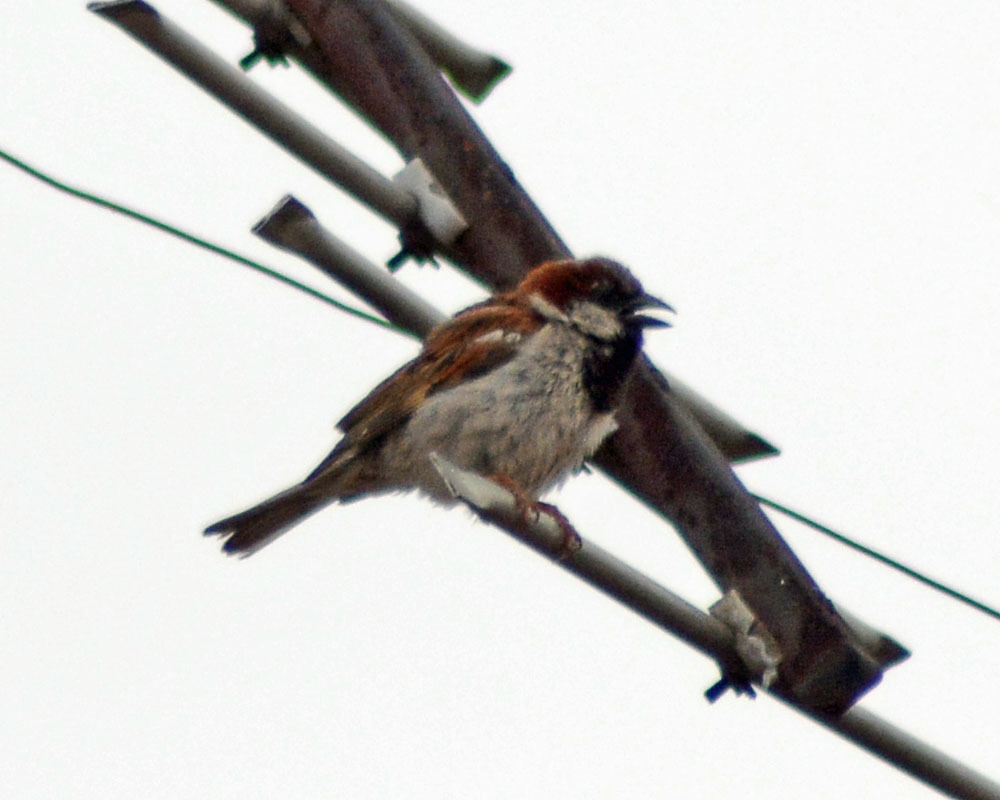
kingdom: Animalia
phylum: Chordata
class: Aves
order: Passeriformes
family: Passeridae
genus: Passer
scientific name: Passer domesticus
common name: House sparrow
